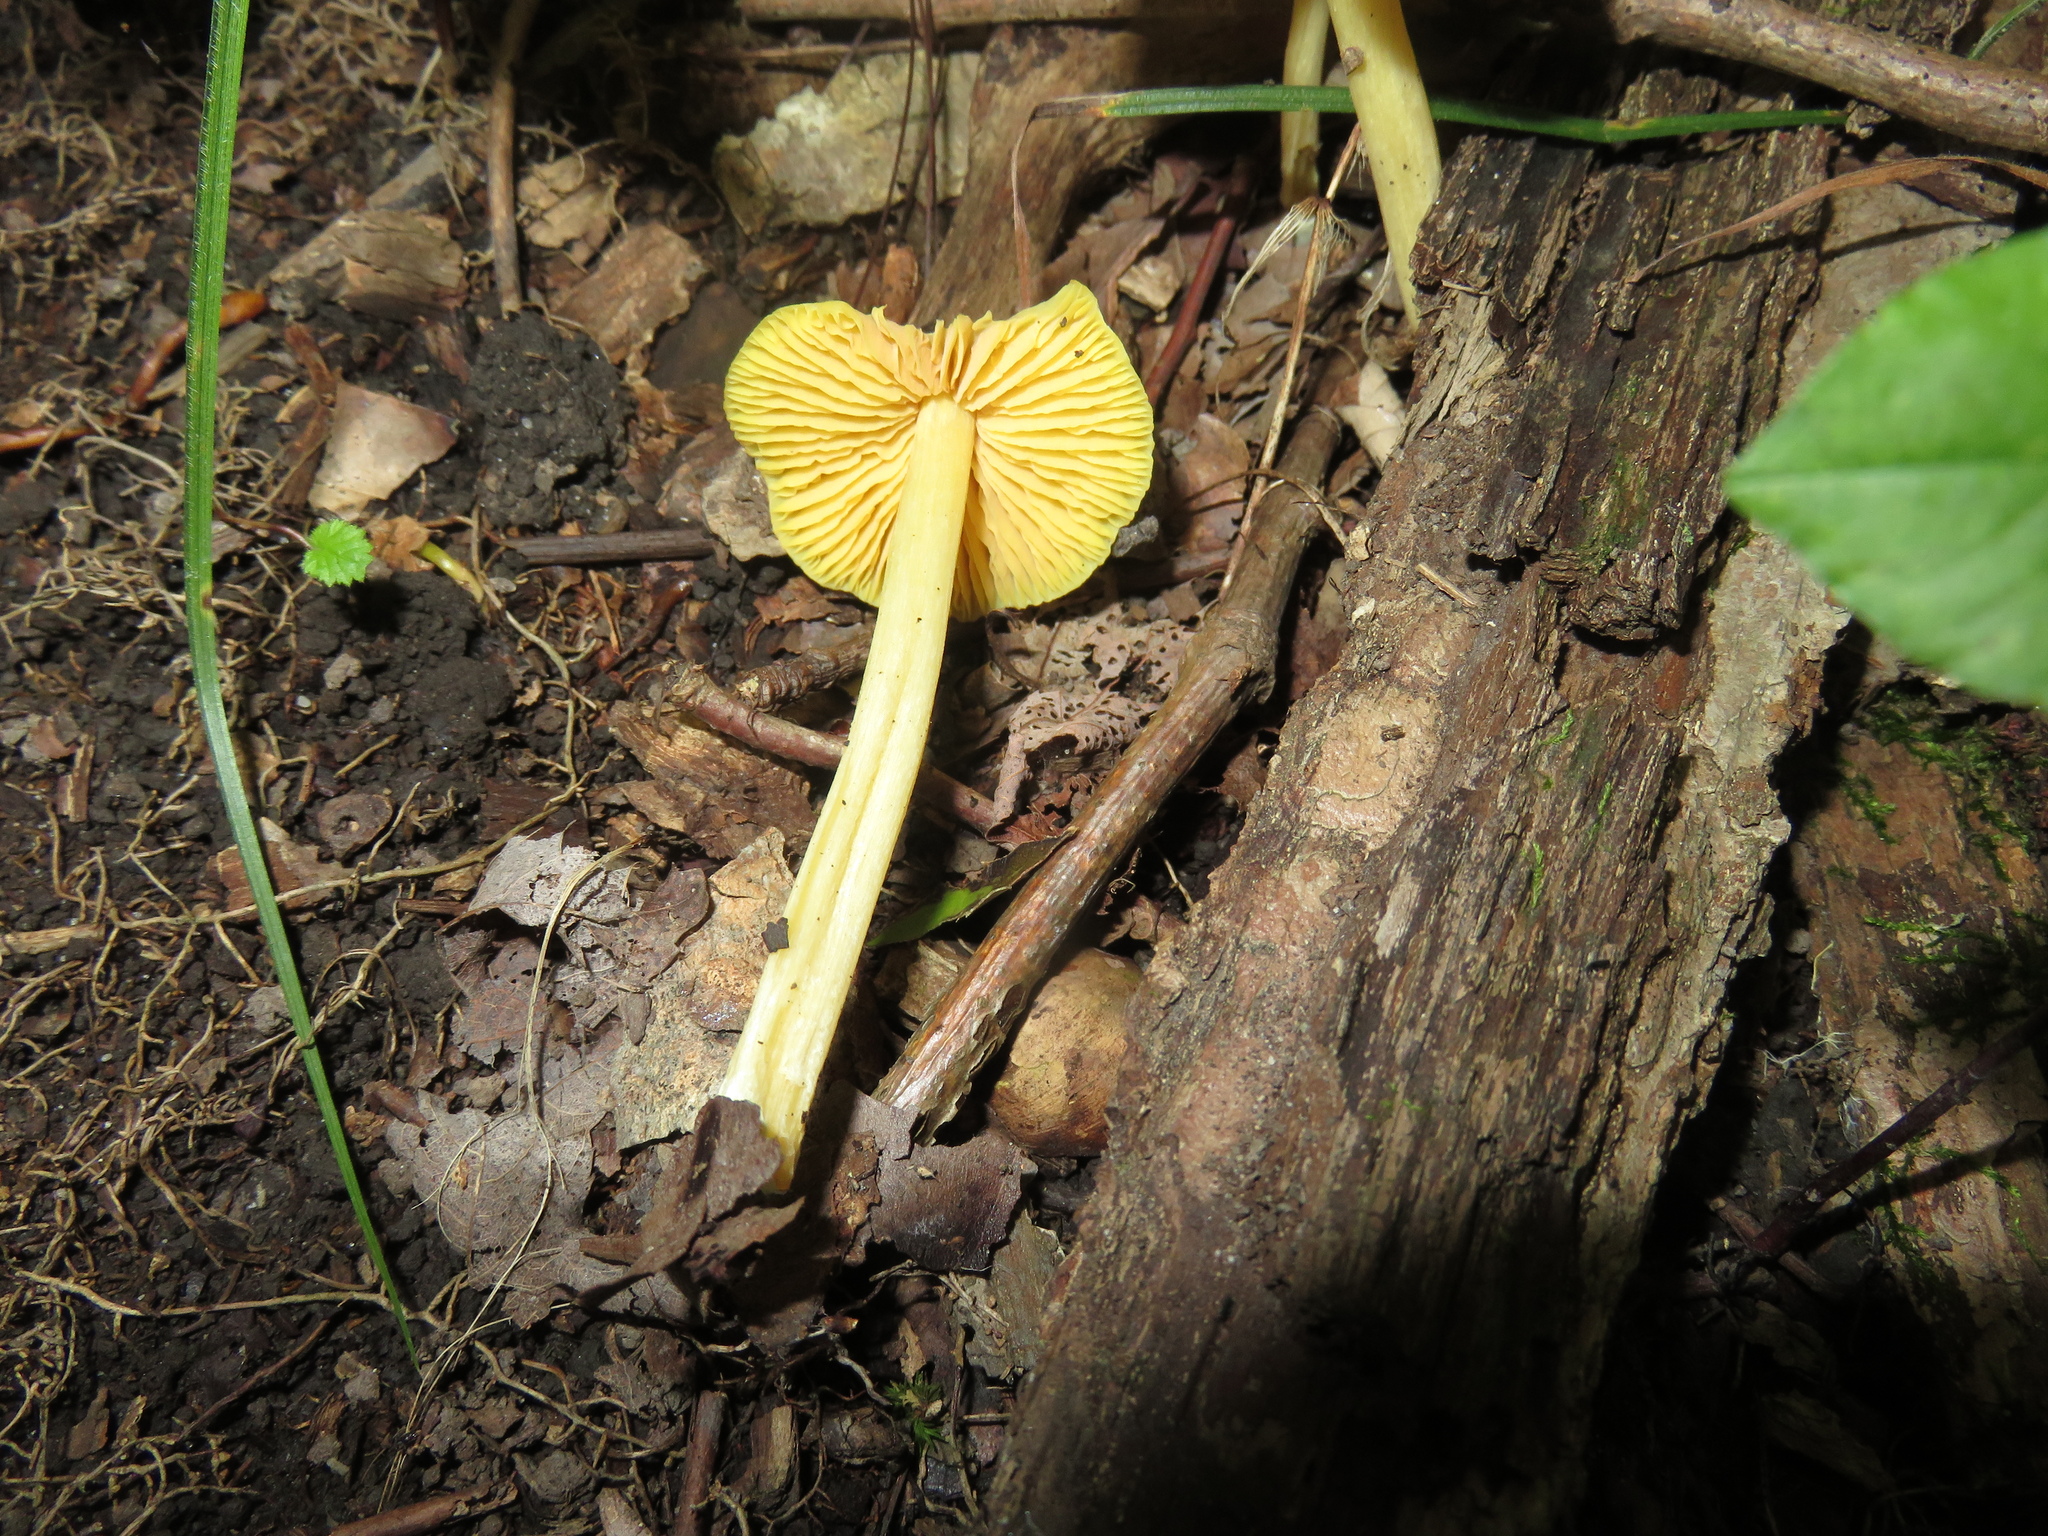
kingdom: Fungi
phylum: Basidiomycota
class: Agaricomycetes
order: Agaricales
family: Entolomataceae
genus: Entoloma
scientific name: Entoloma murrayi
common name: Yellow unicorn entoloma
